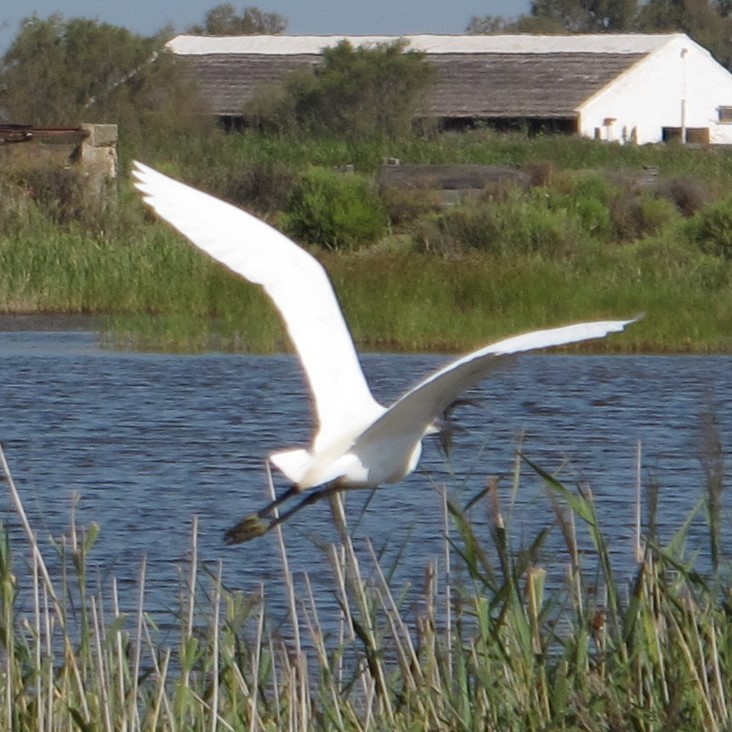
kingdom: Animalia
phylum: Chordata
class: Aves
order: Pelecaniformes
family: Ardeidae
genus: Egretta
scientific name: Egretta garzetta
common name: Little egret
